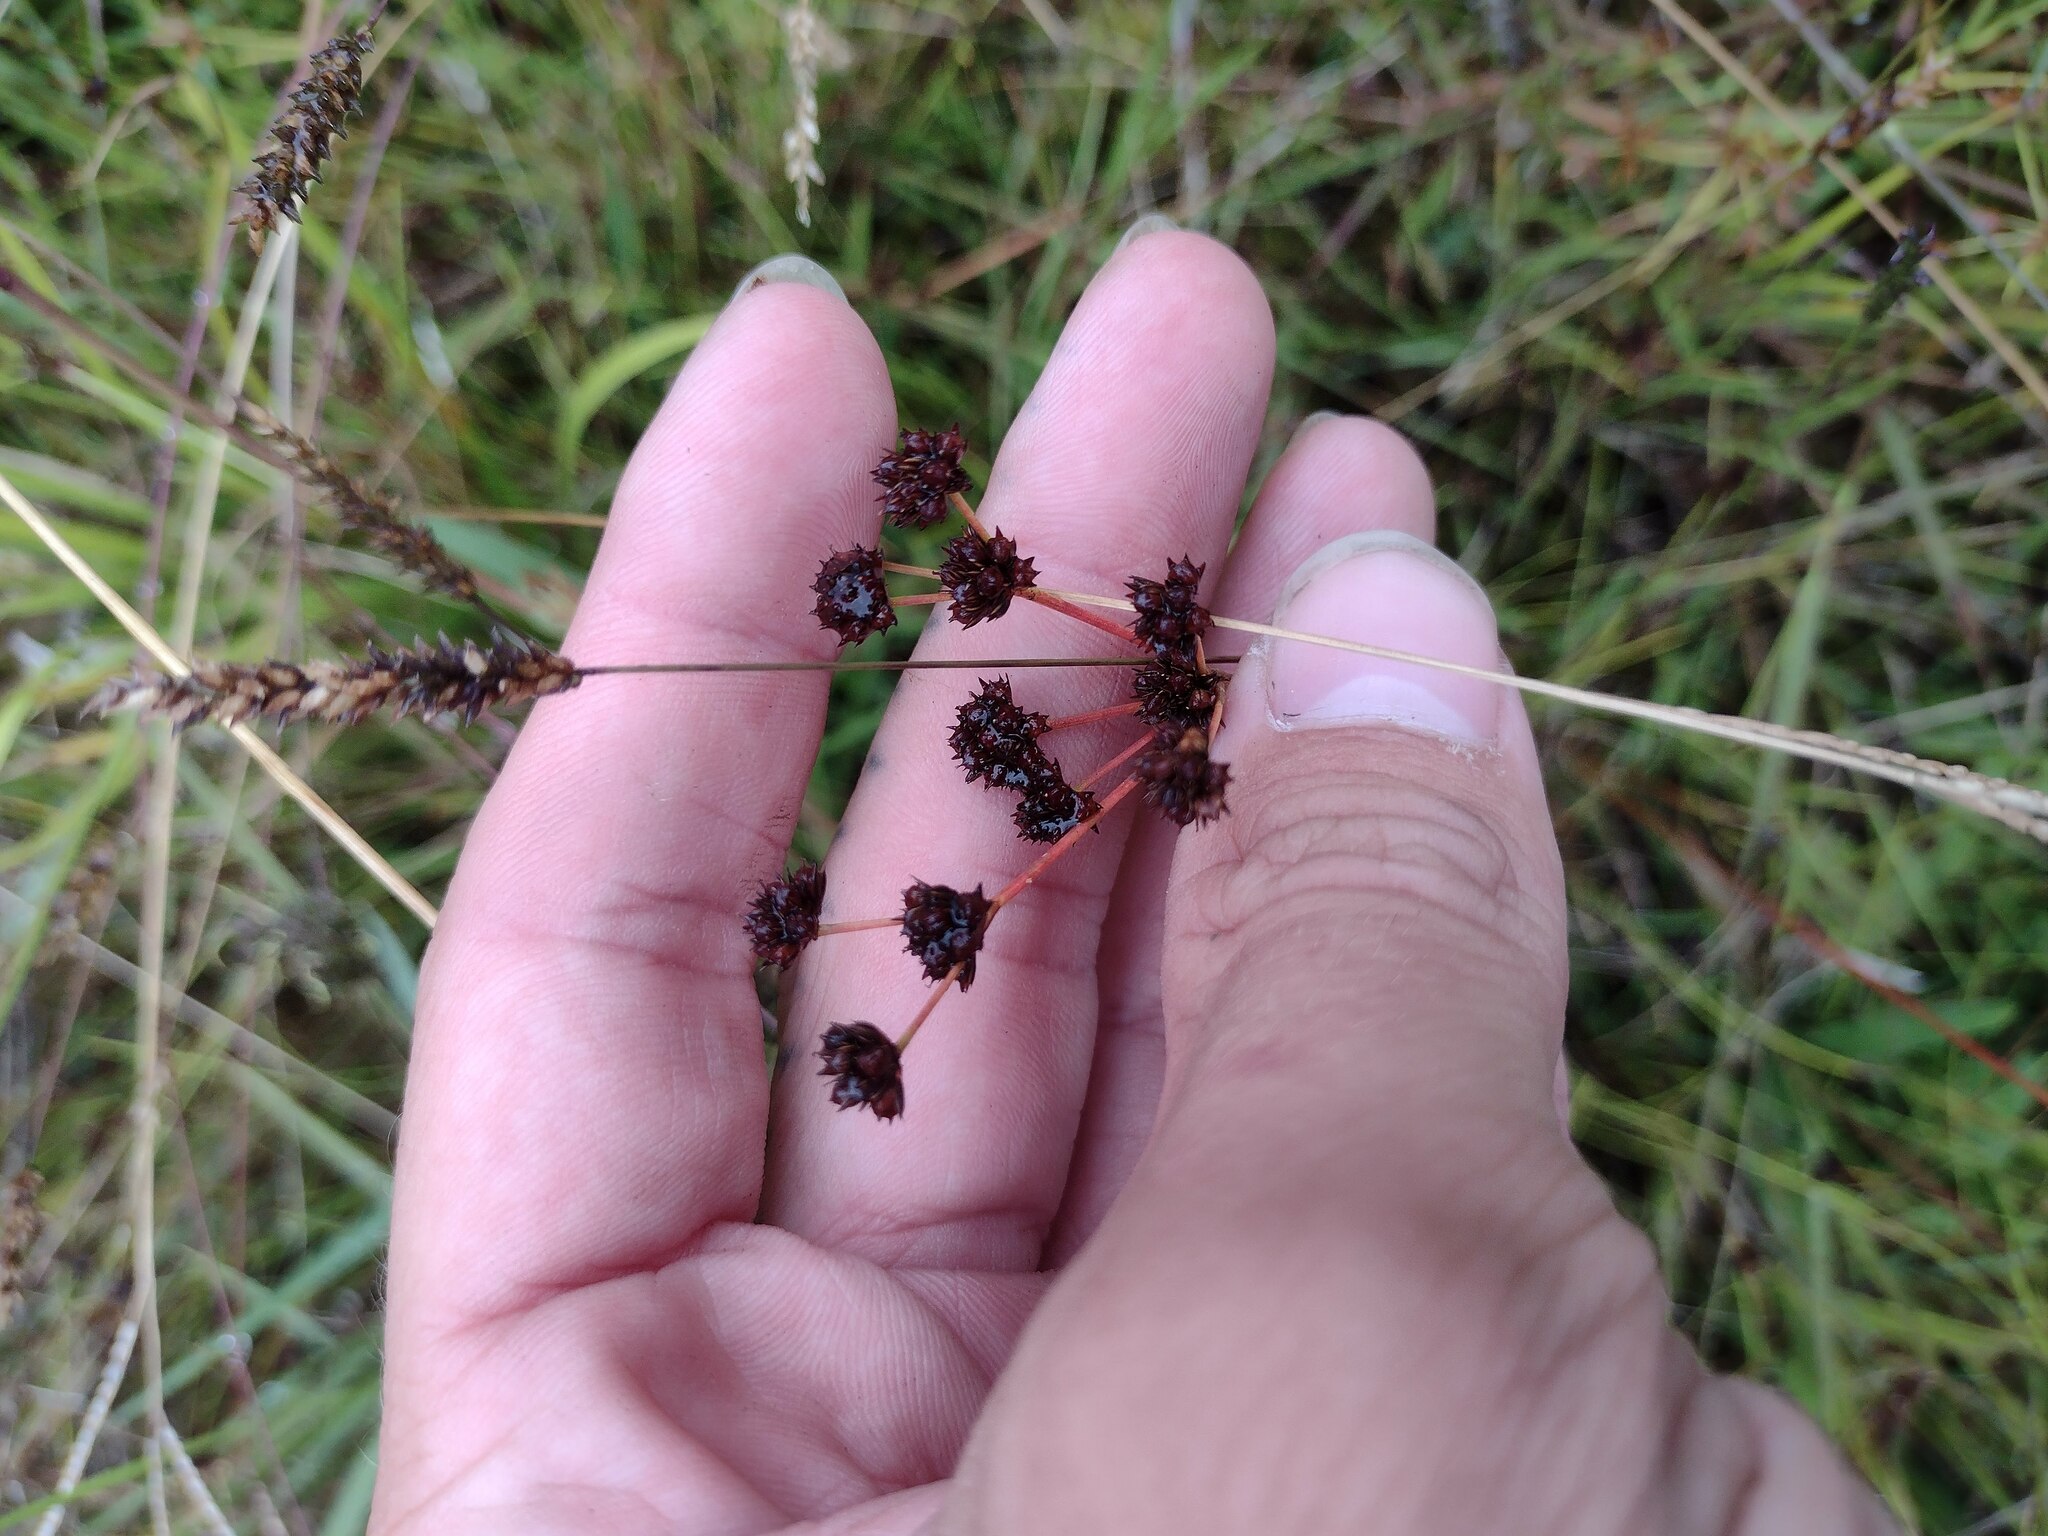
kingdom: Plantae
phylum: Tracheophyta
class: Liliopsida
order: Poales
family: Juncaceae
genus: Juncus
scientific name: Juncus planifolius
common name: Broadleaf rush
